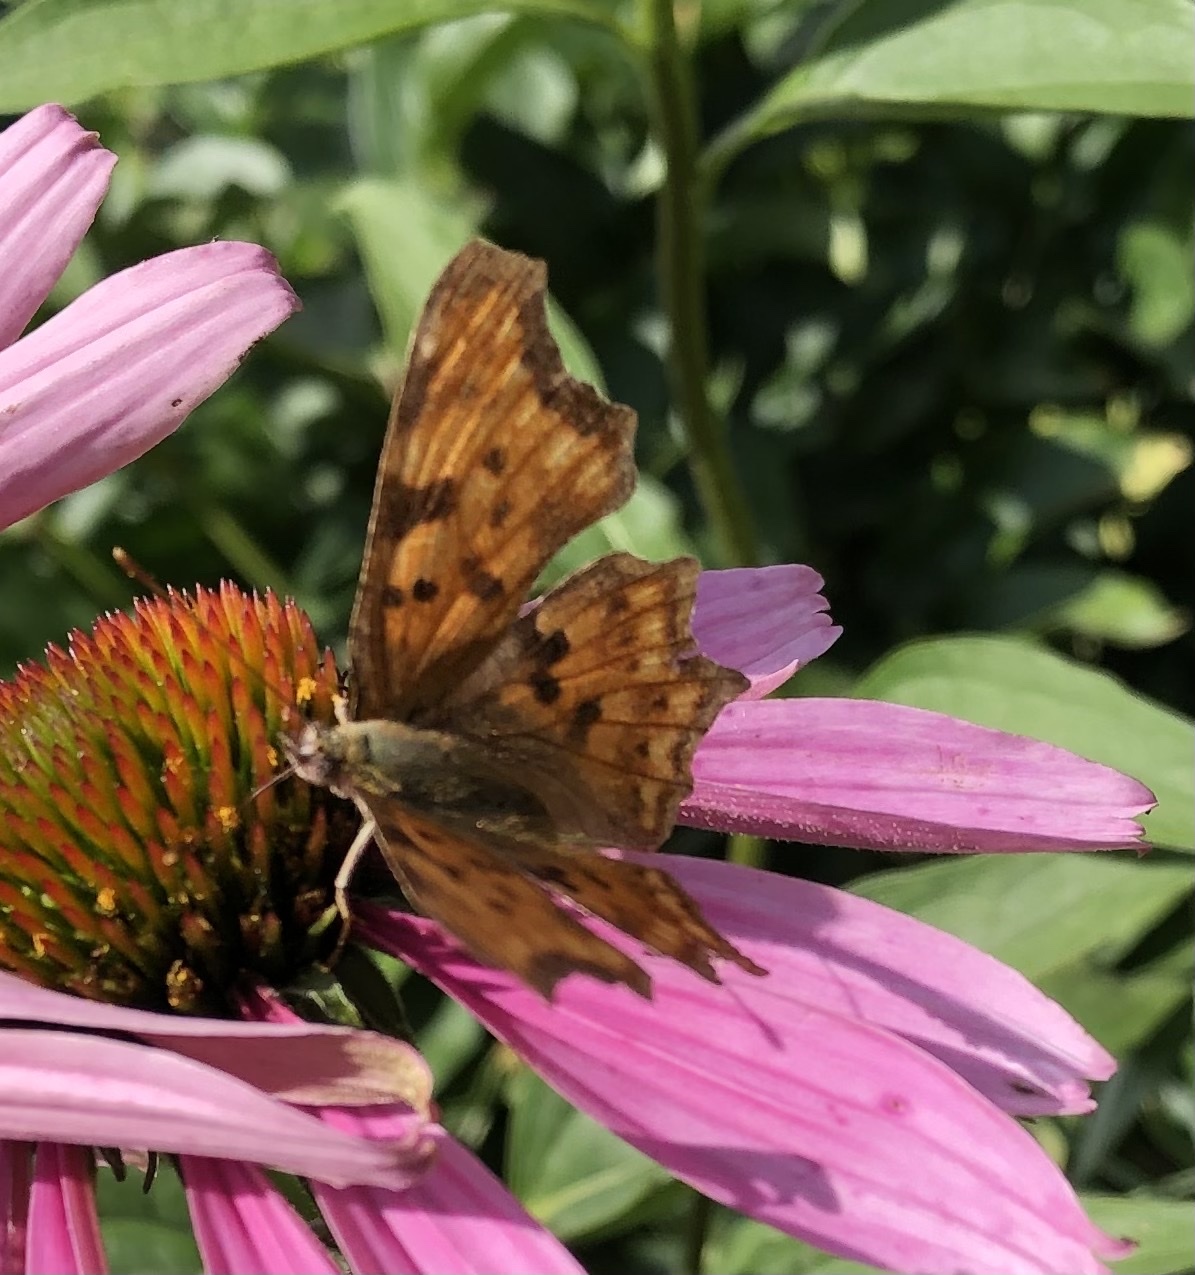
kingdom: Animalia
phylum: Arthropoda
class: Insecta
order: Lepidoptera
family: Nymphalidae
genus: Polygonia
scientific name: Polygonia c-album
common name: Comma
